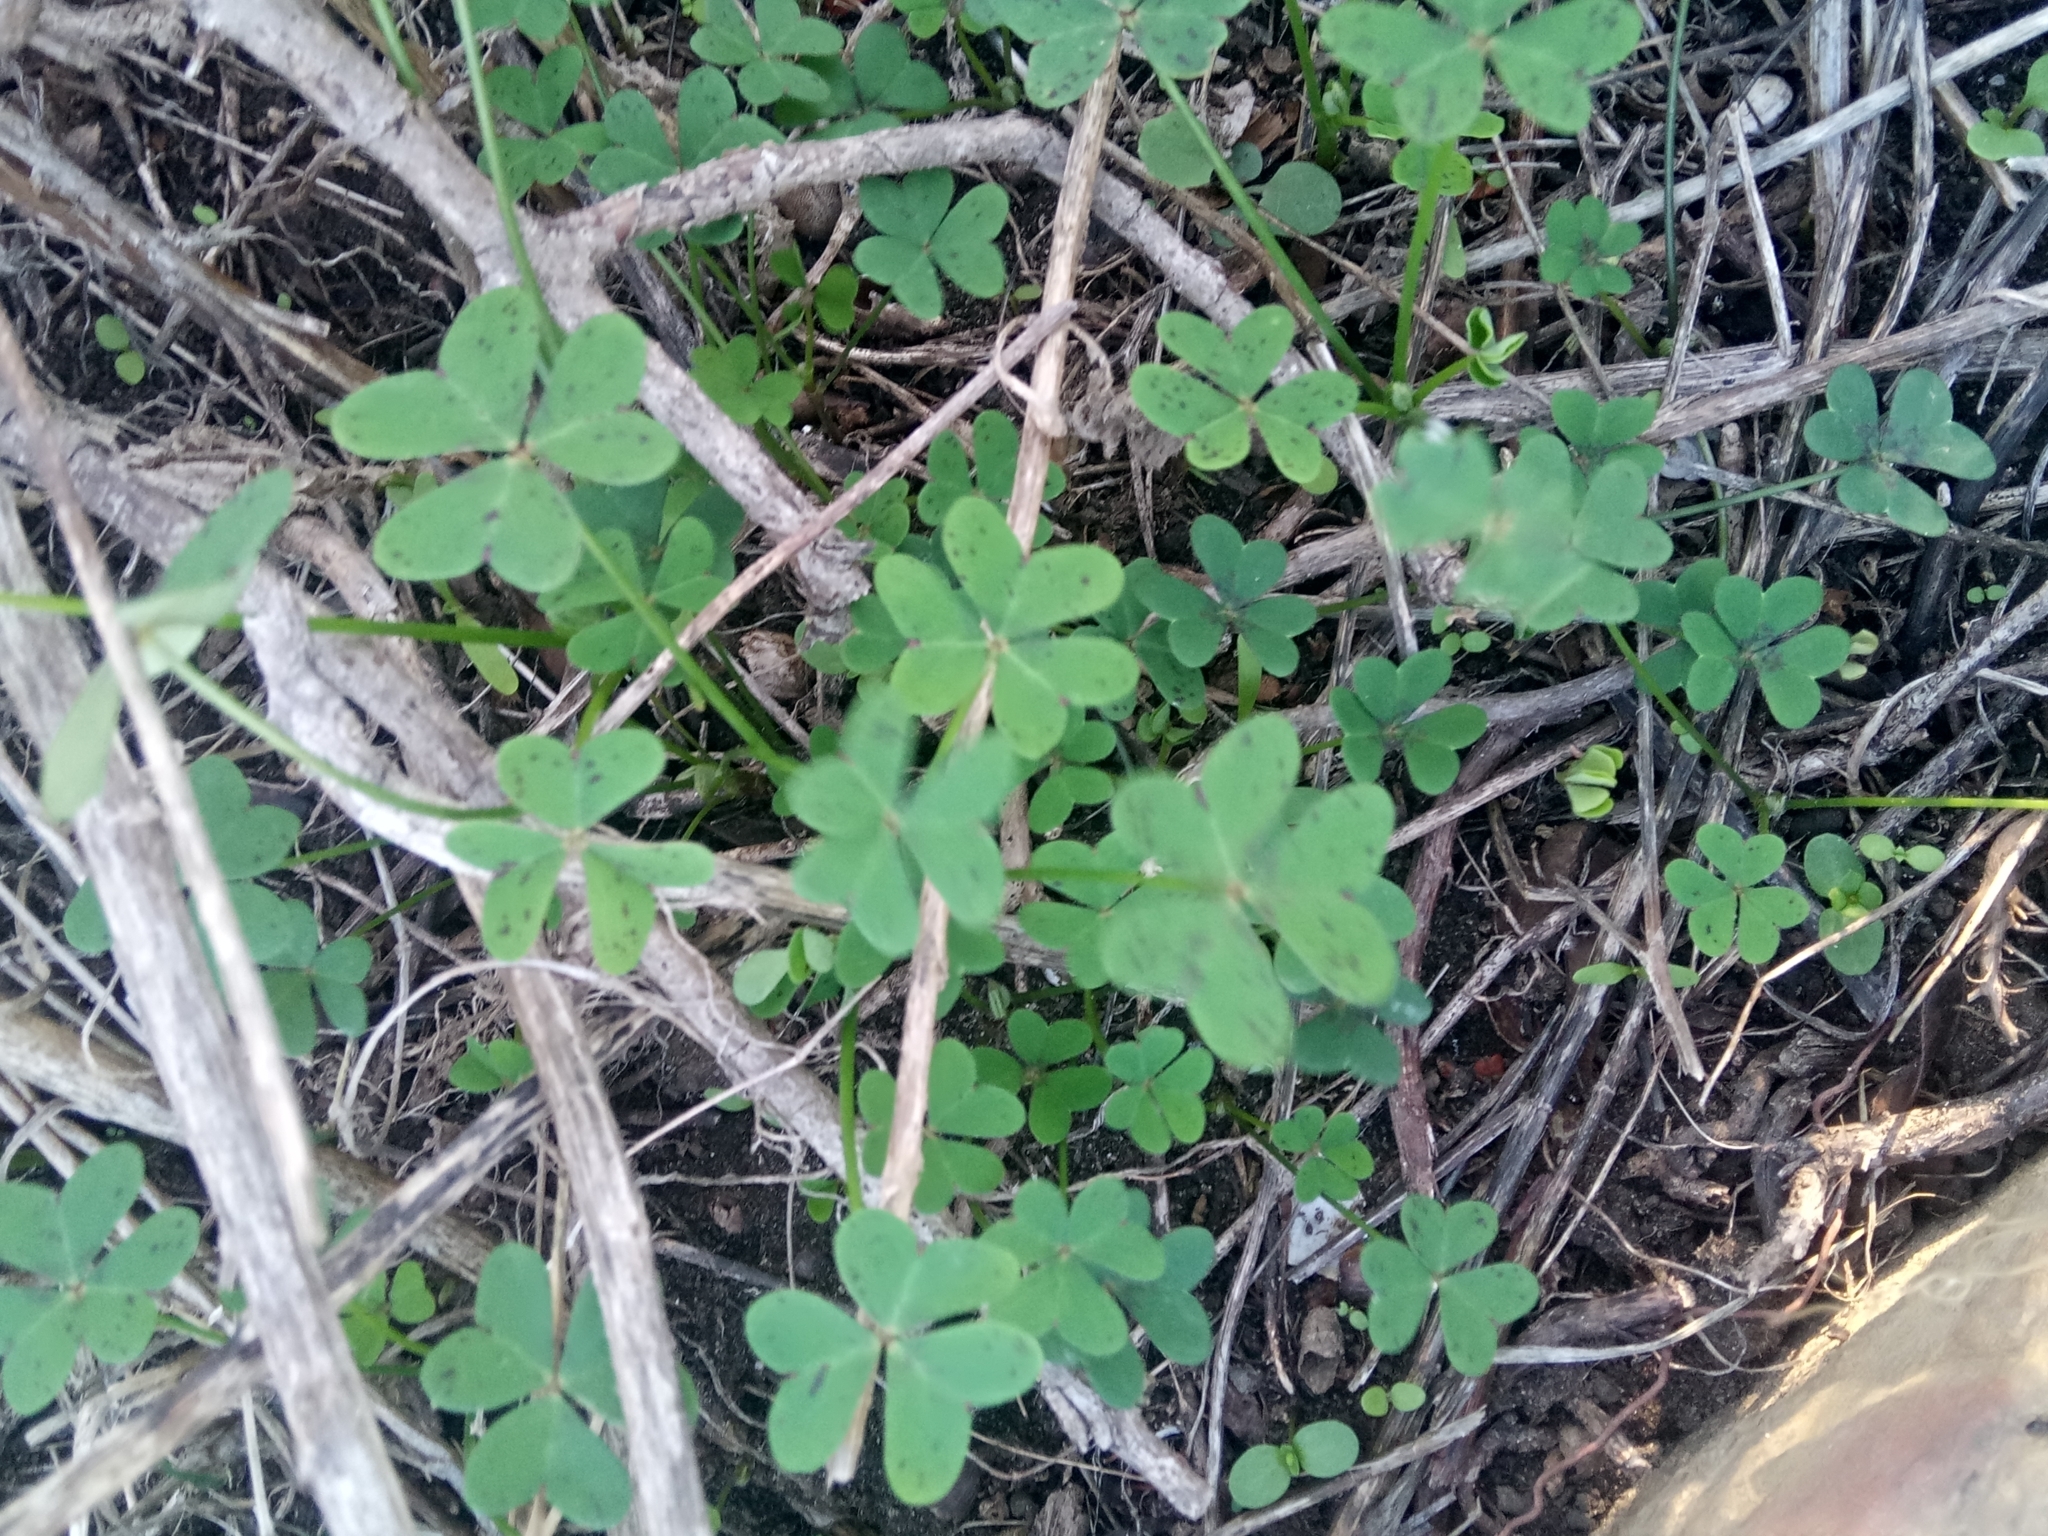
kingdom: Plantae
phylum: Tracheophyta
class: Magnoliopsida
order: Oxalidales
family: Oxalidaceae
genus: Oxalis
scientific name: Oxalis pes-caprae
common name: Bermuda-buttercup
